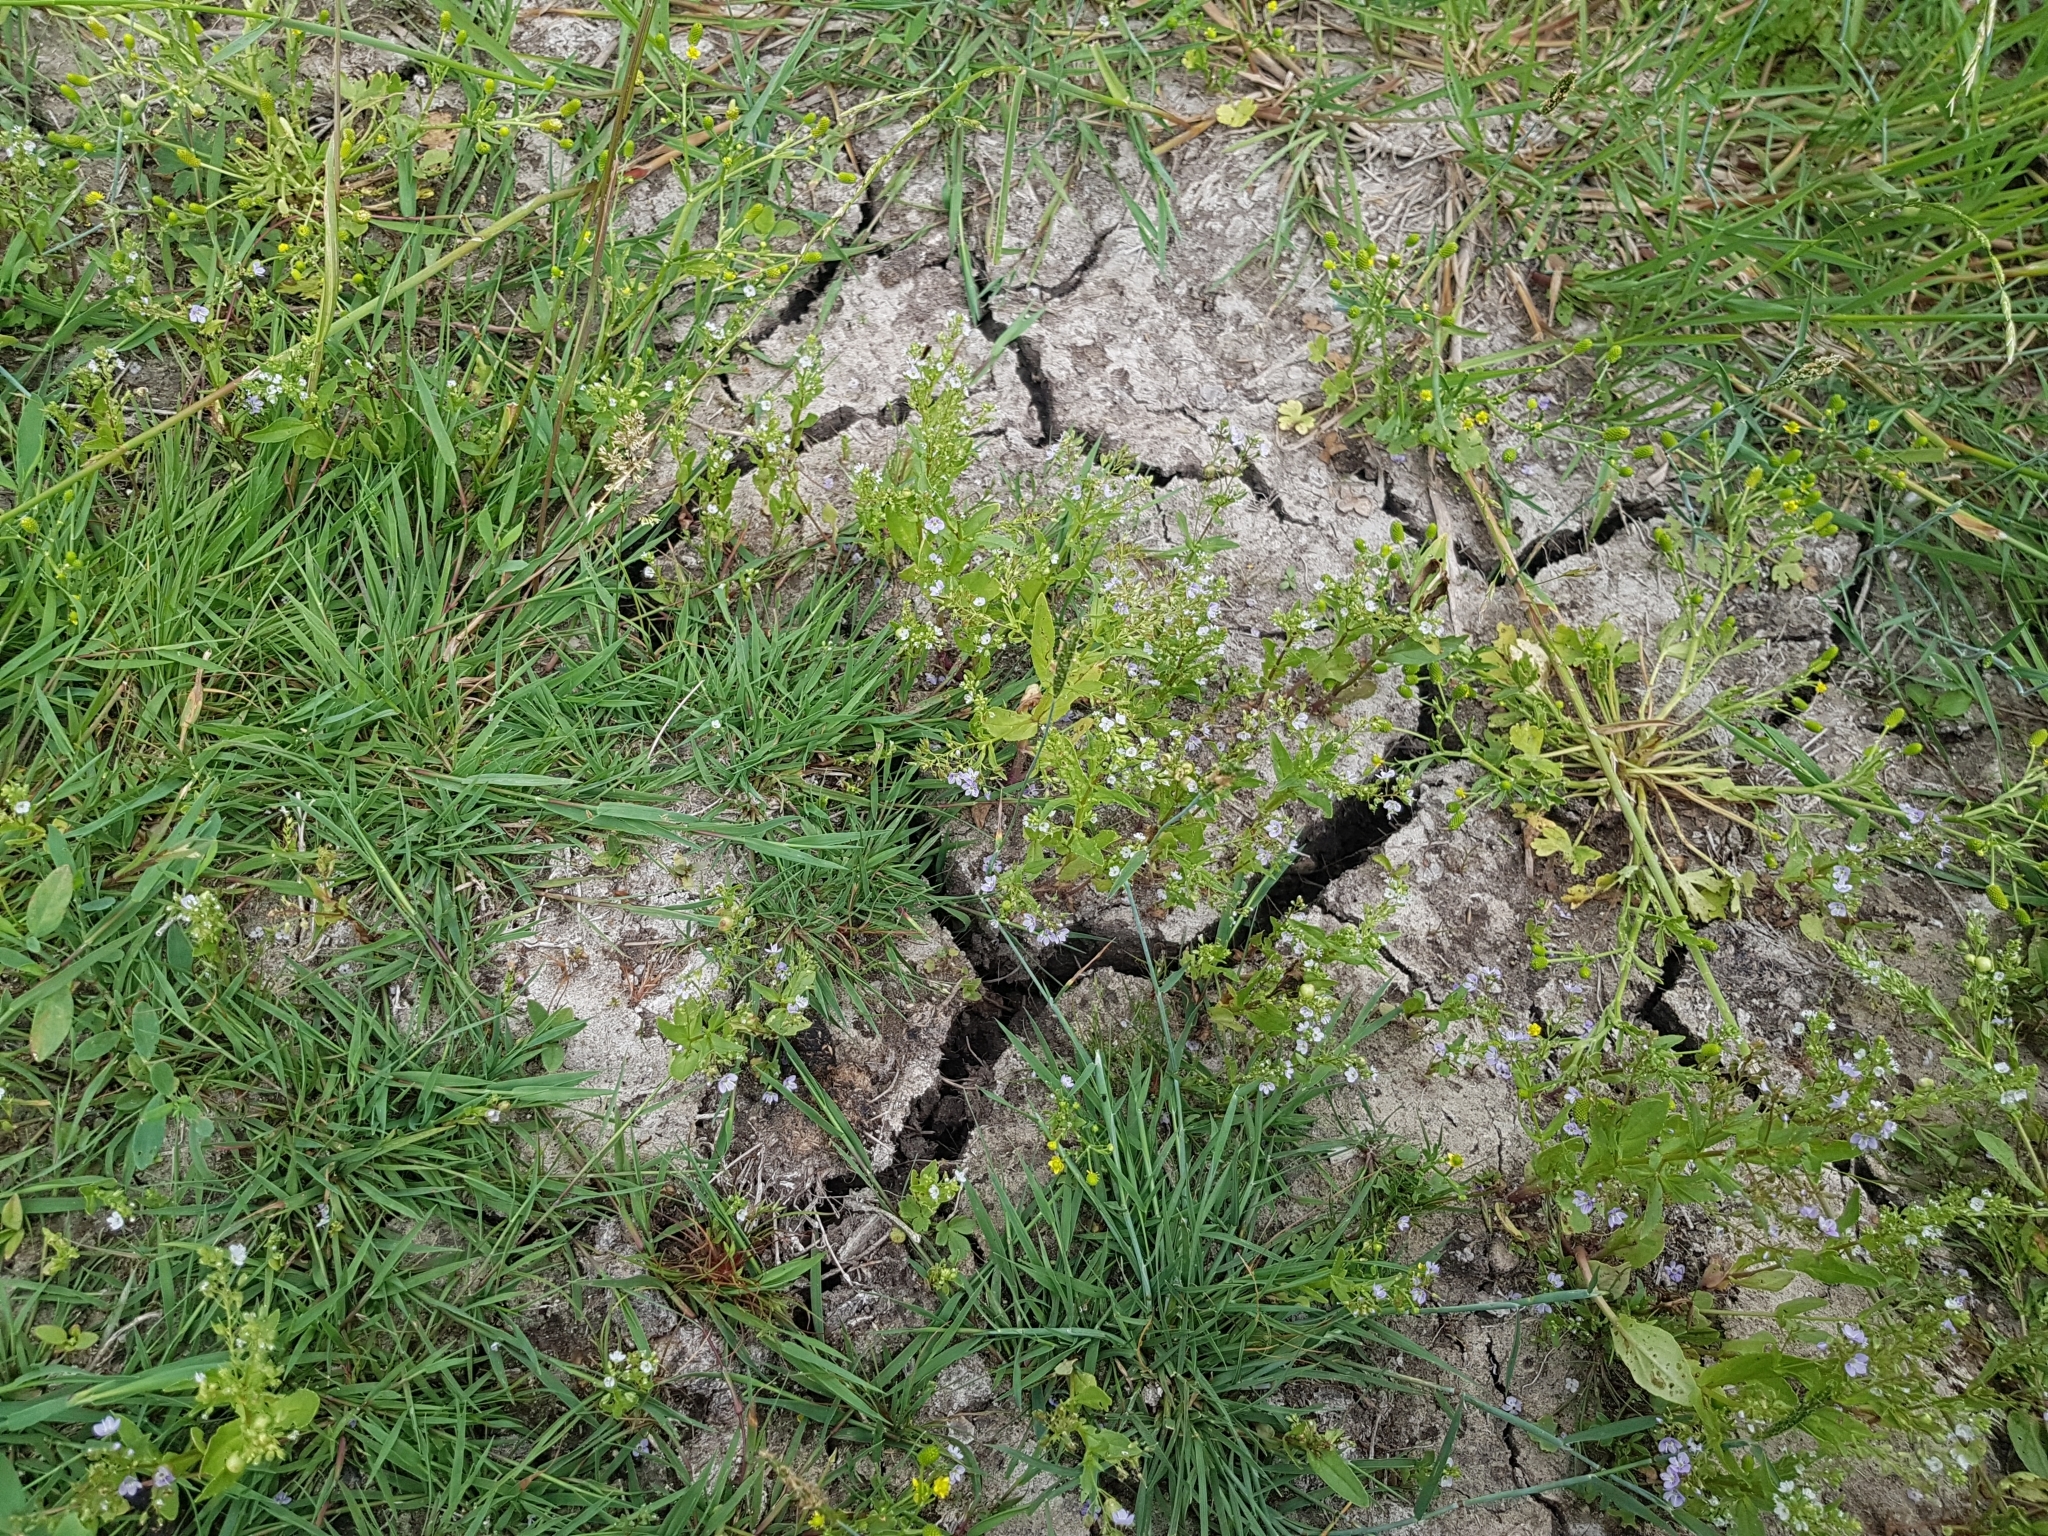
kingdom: Plantae
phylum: Tracheophyta
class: Magnoliopsida
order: Lamiales
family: Plantaginaceae
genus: Veronica
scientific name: Veronica anagallis-aquatica
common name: Water speedwell
